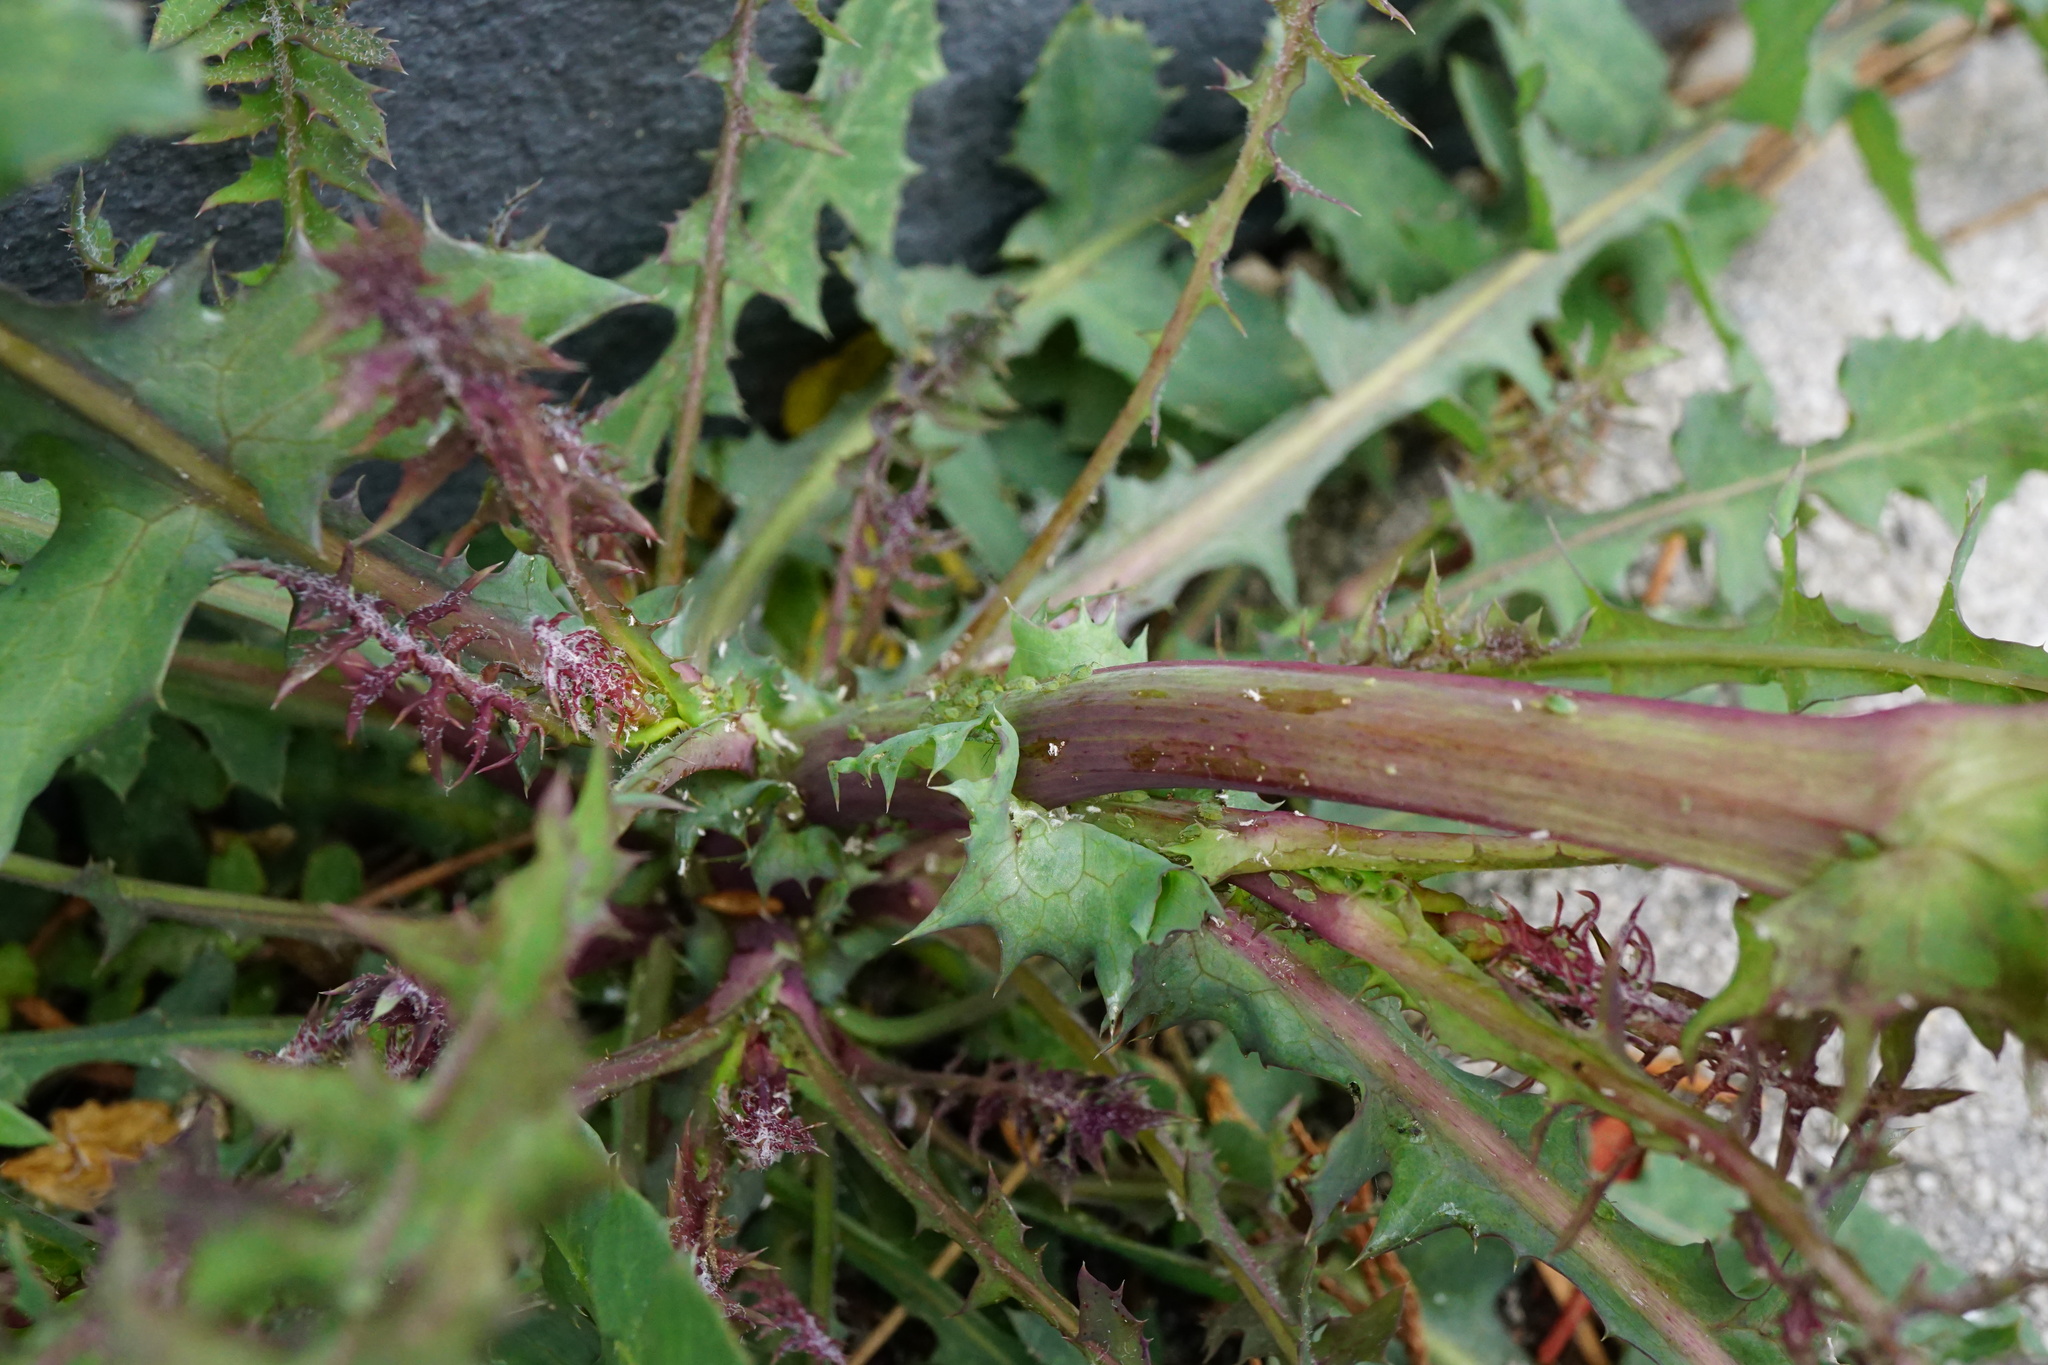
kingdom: Plantae
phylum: Tracheophyta
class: Magnoliopsida
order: Asterales
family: Asteraceae
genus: Sonchus
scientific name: Sonchus oleraceus
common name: Common sowthistle
